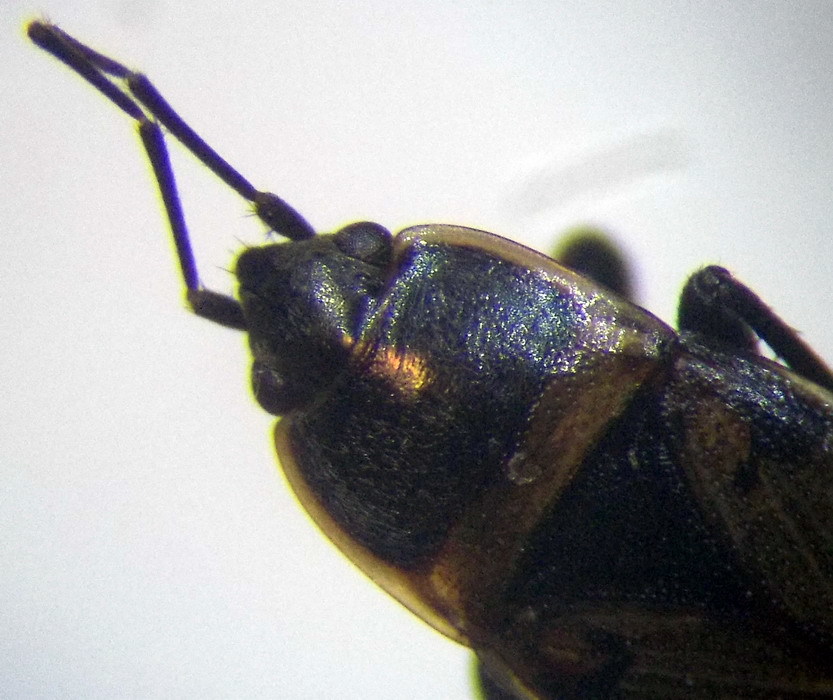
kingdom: Animalia
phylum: Arthropoda
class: Insecta
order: Hemiptera
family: Rhyparochromidae
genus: Bleteogonus
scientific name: Bleteogonus beckeri
